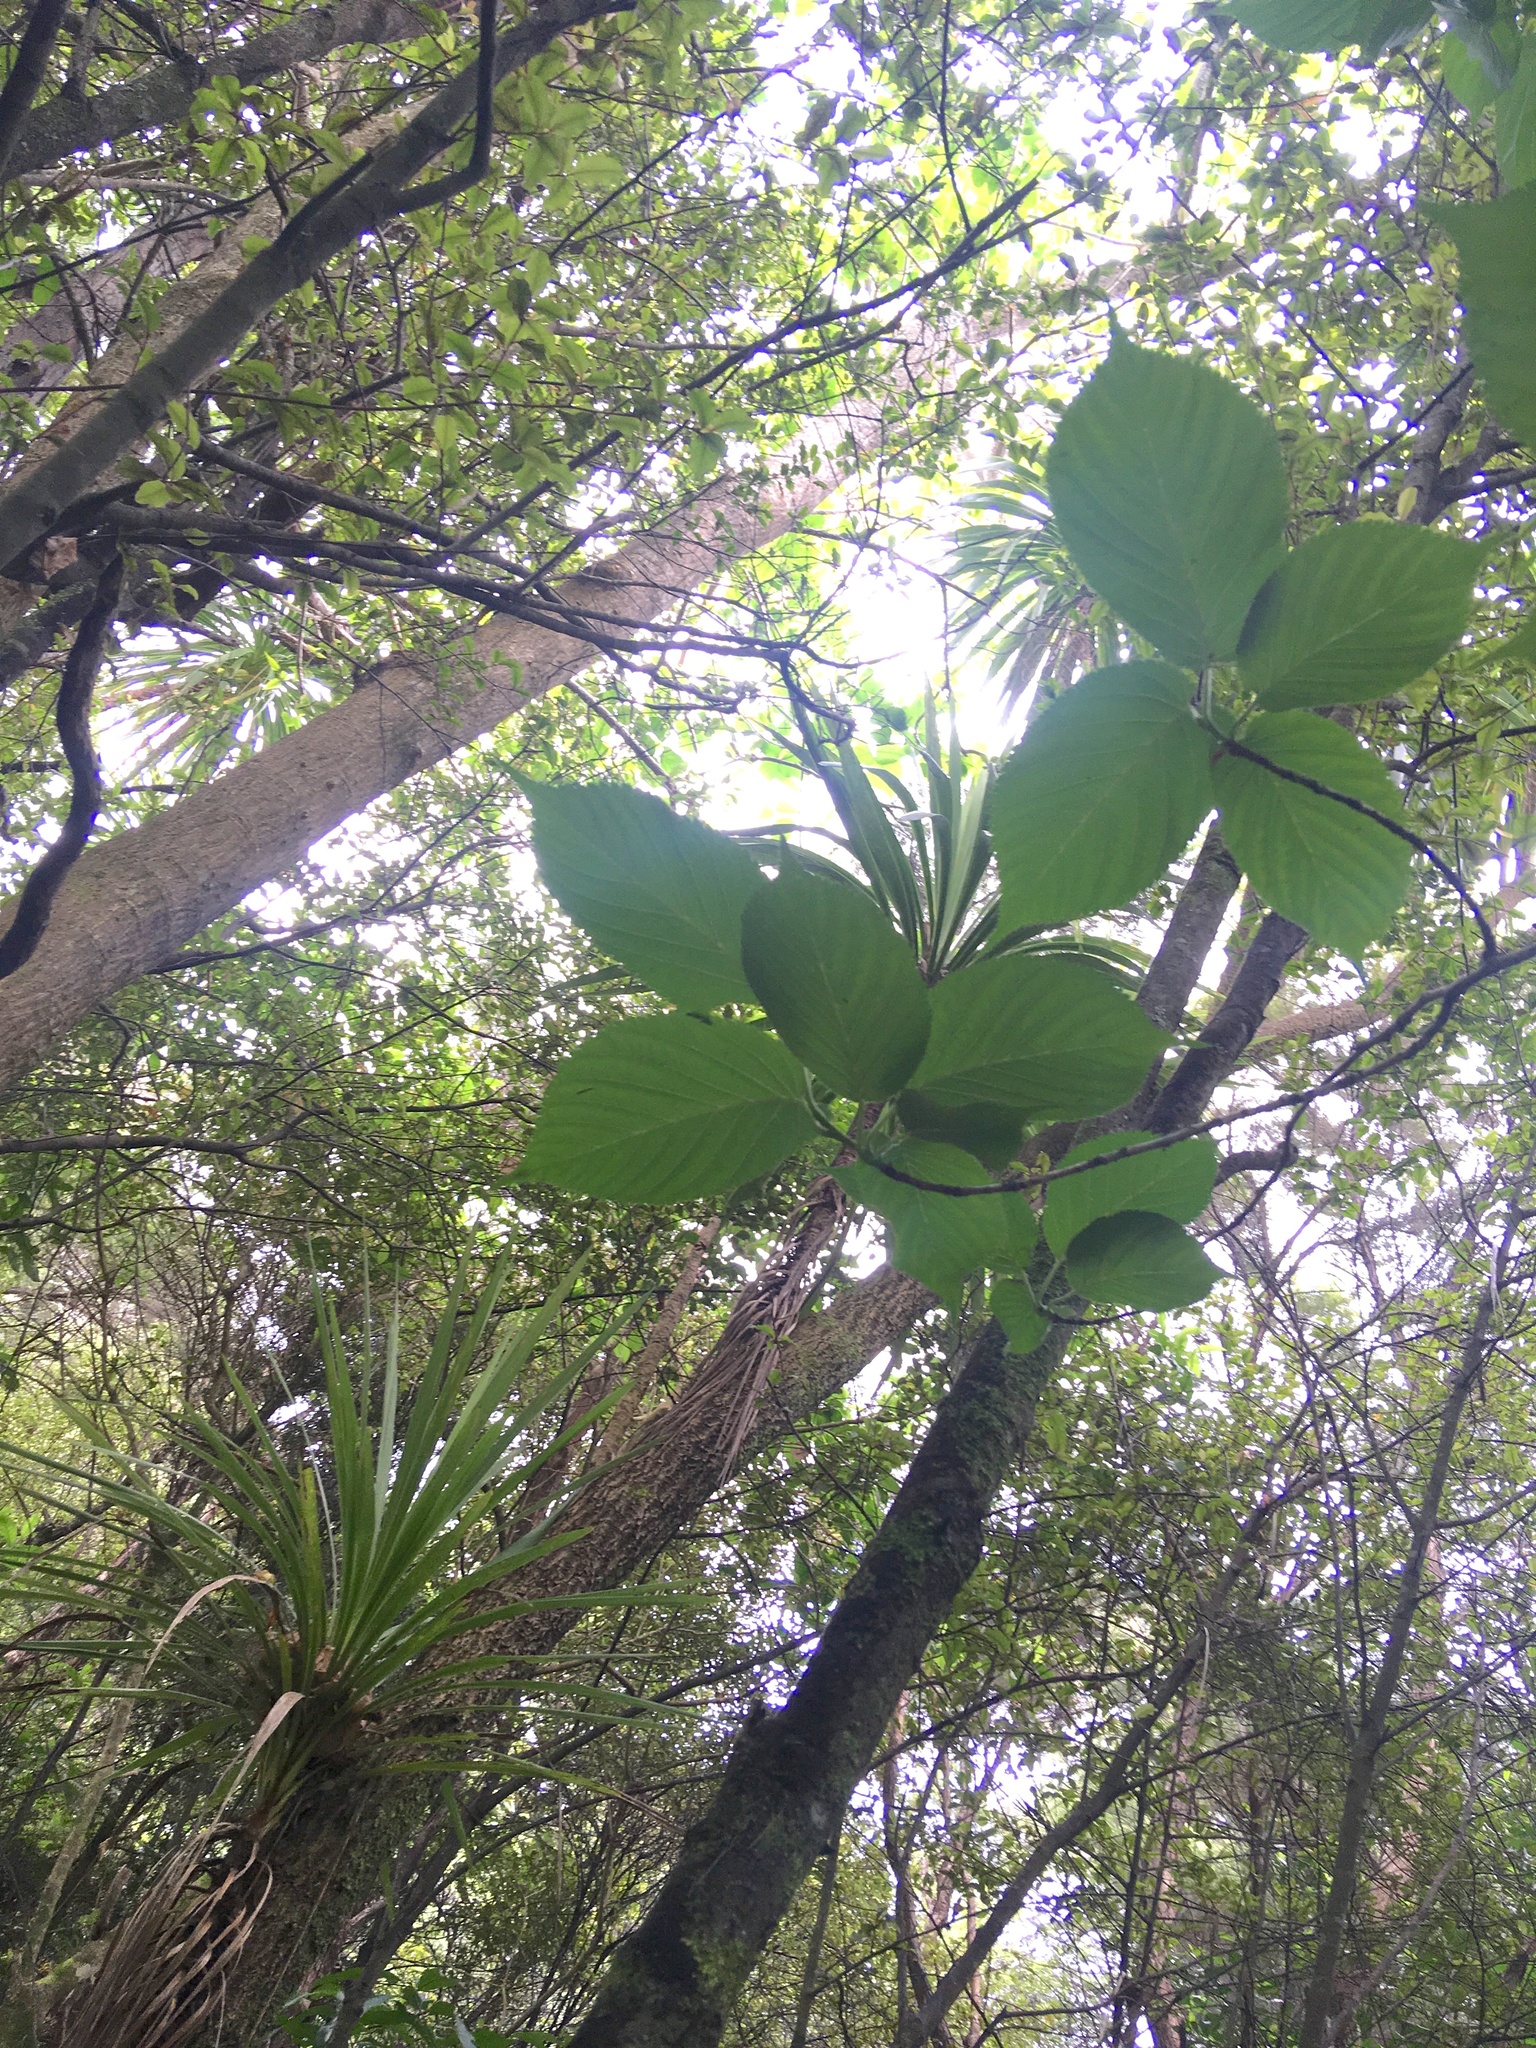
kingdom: Plantae
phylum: Tracheophyta
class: Liliopsida
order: Asparagales
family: Asparagaceae
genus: Cordyline
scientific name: Cordyline australis
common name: Cabbage-palm
